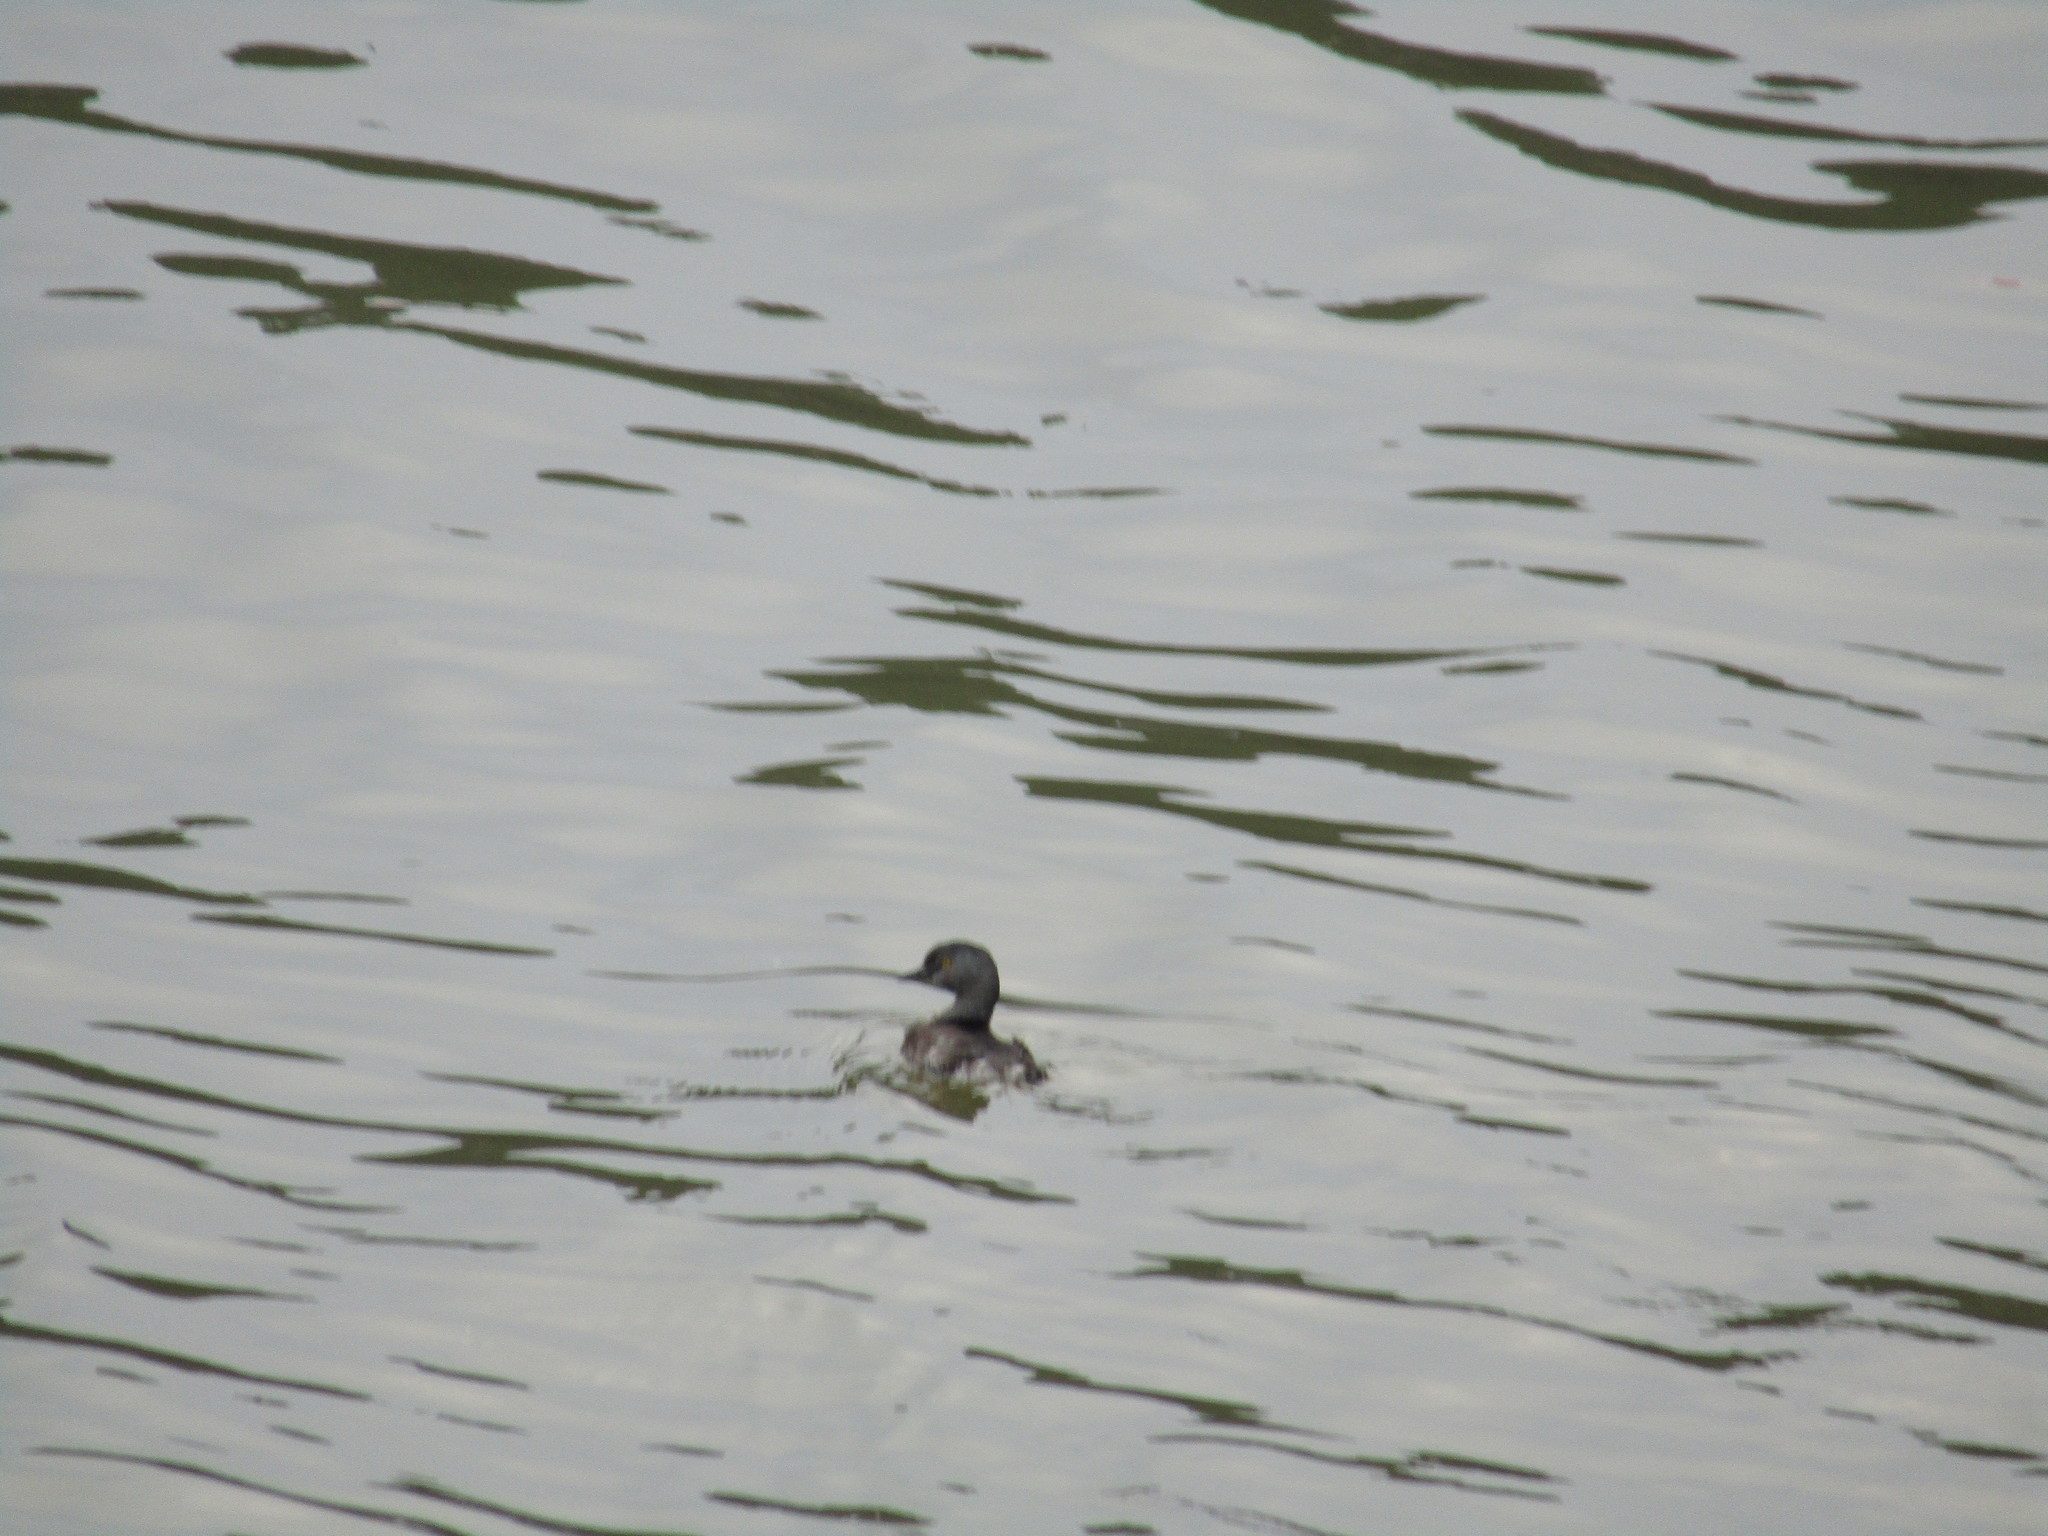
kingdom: Animalia
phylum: Chordata
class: Aves
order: Podicipediformes
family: Podicipedidae
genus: Tachybaptus
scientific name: Tachybaptus dominicus
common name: Least grebe
